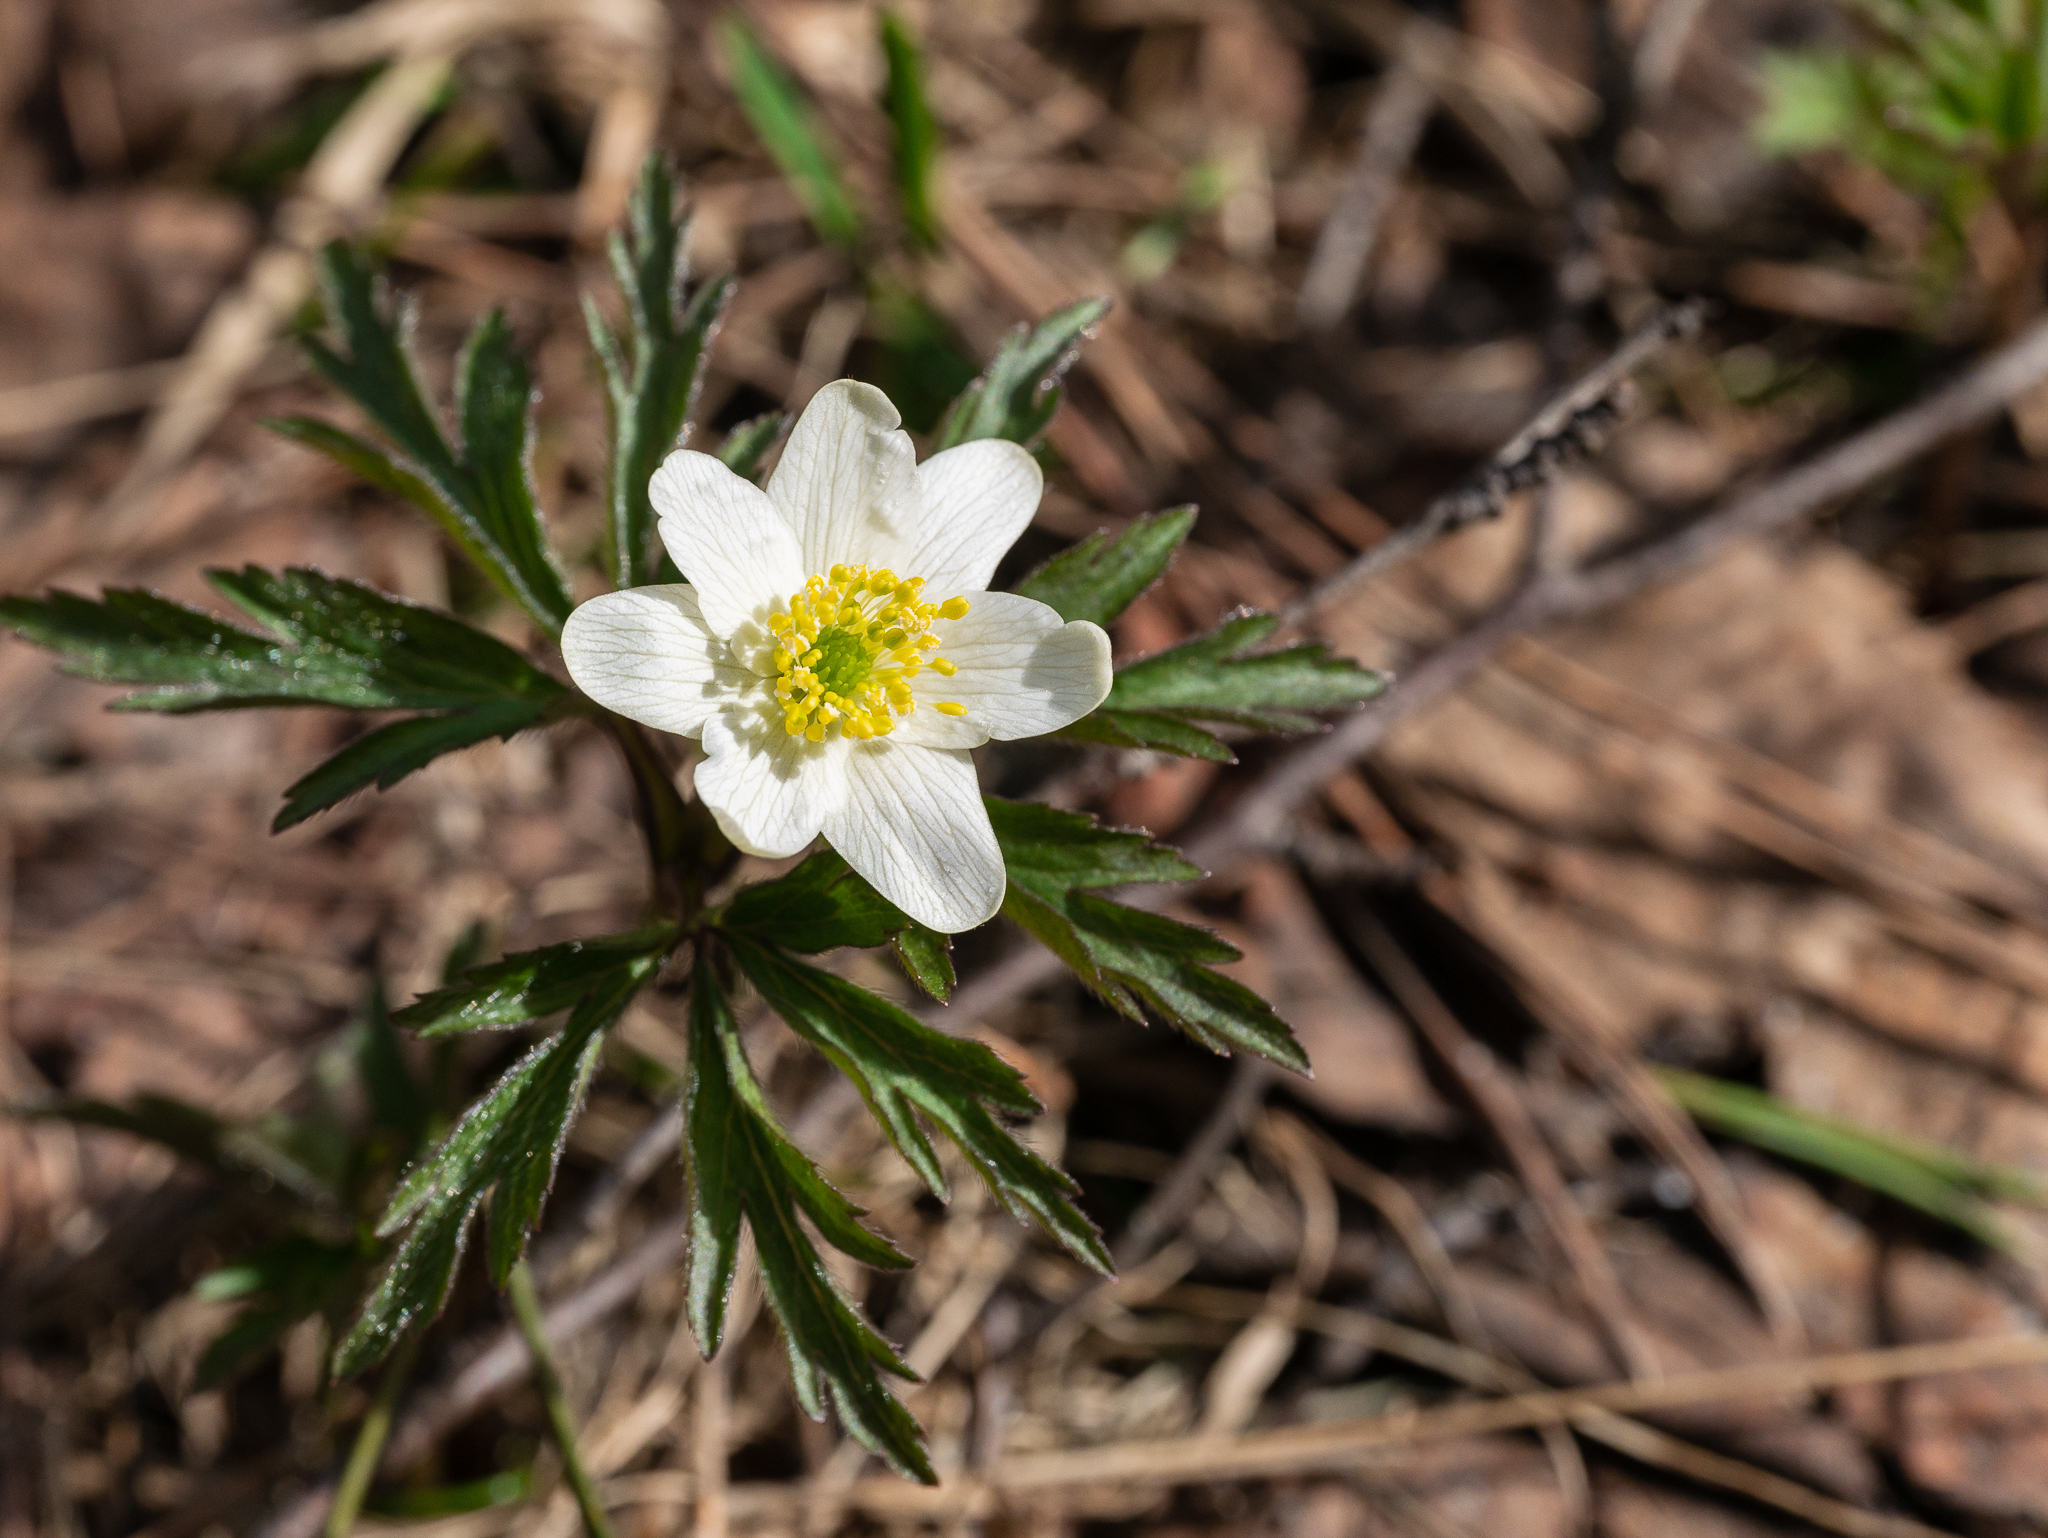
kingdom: Plantae
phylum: Tracheophyta
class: Magnoliopsida
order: Ranunculales
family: Ranunculaceae
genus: Anemone
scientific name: Anemone nemorosa
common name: Wood anemone
